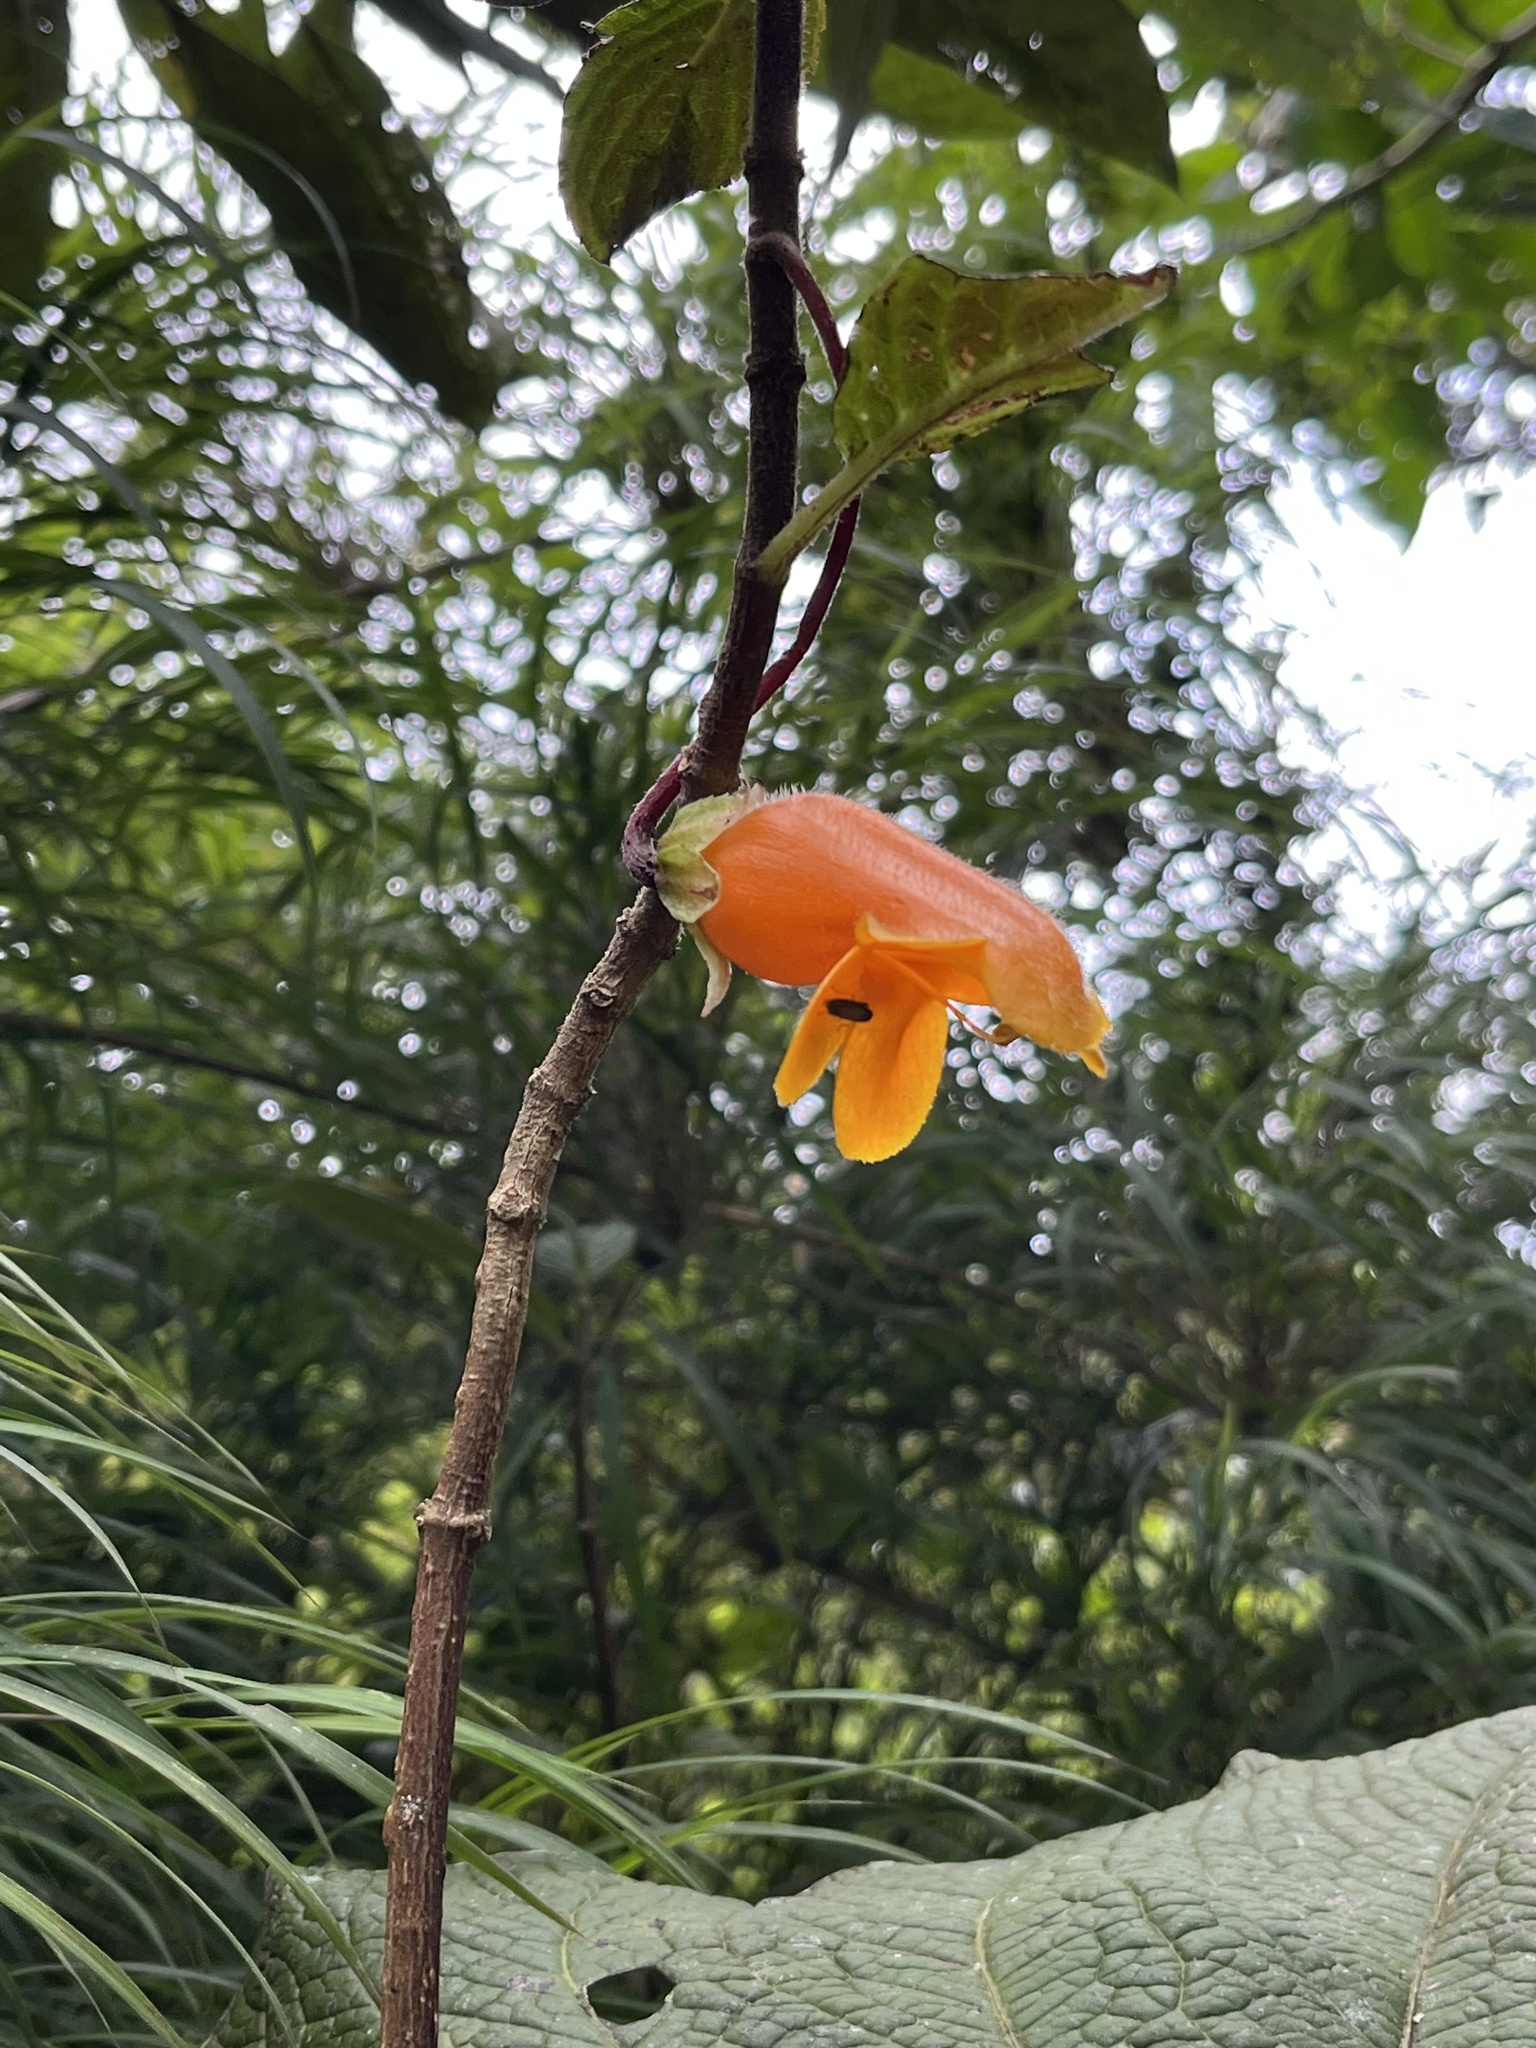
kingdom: Plantae
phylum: Tracheophyta
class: Magnoliopsida
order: Lamiales
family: Gesneriaceae
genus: Columnea
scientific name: Columnea strigosa
